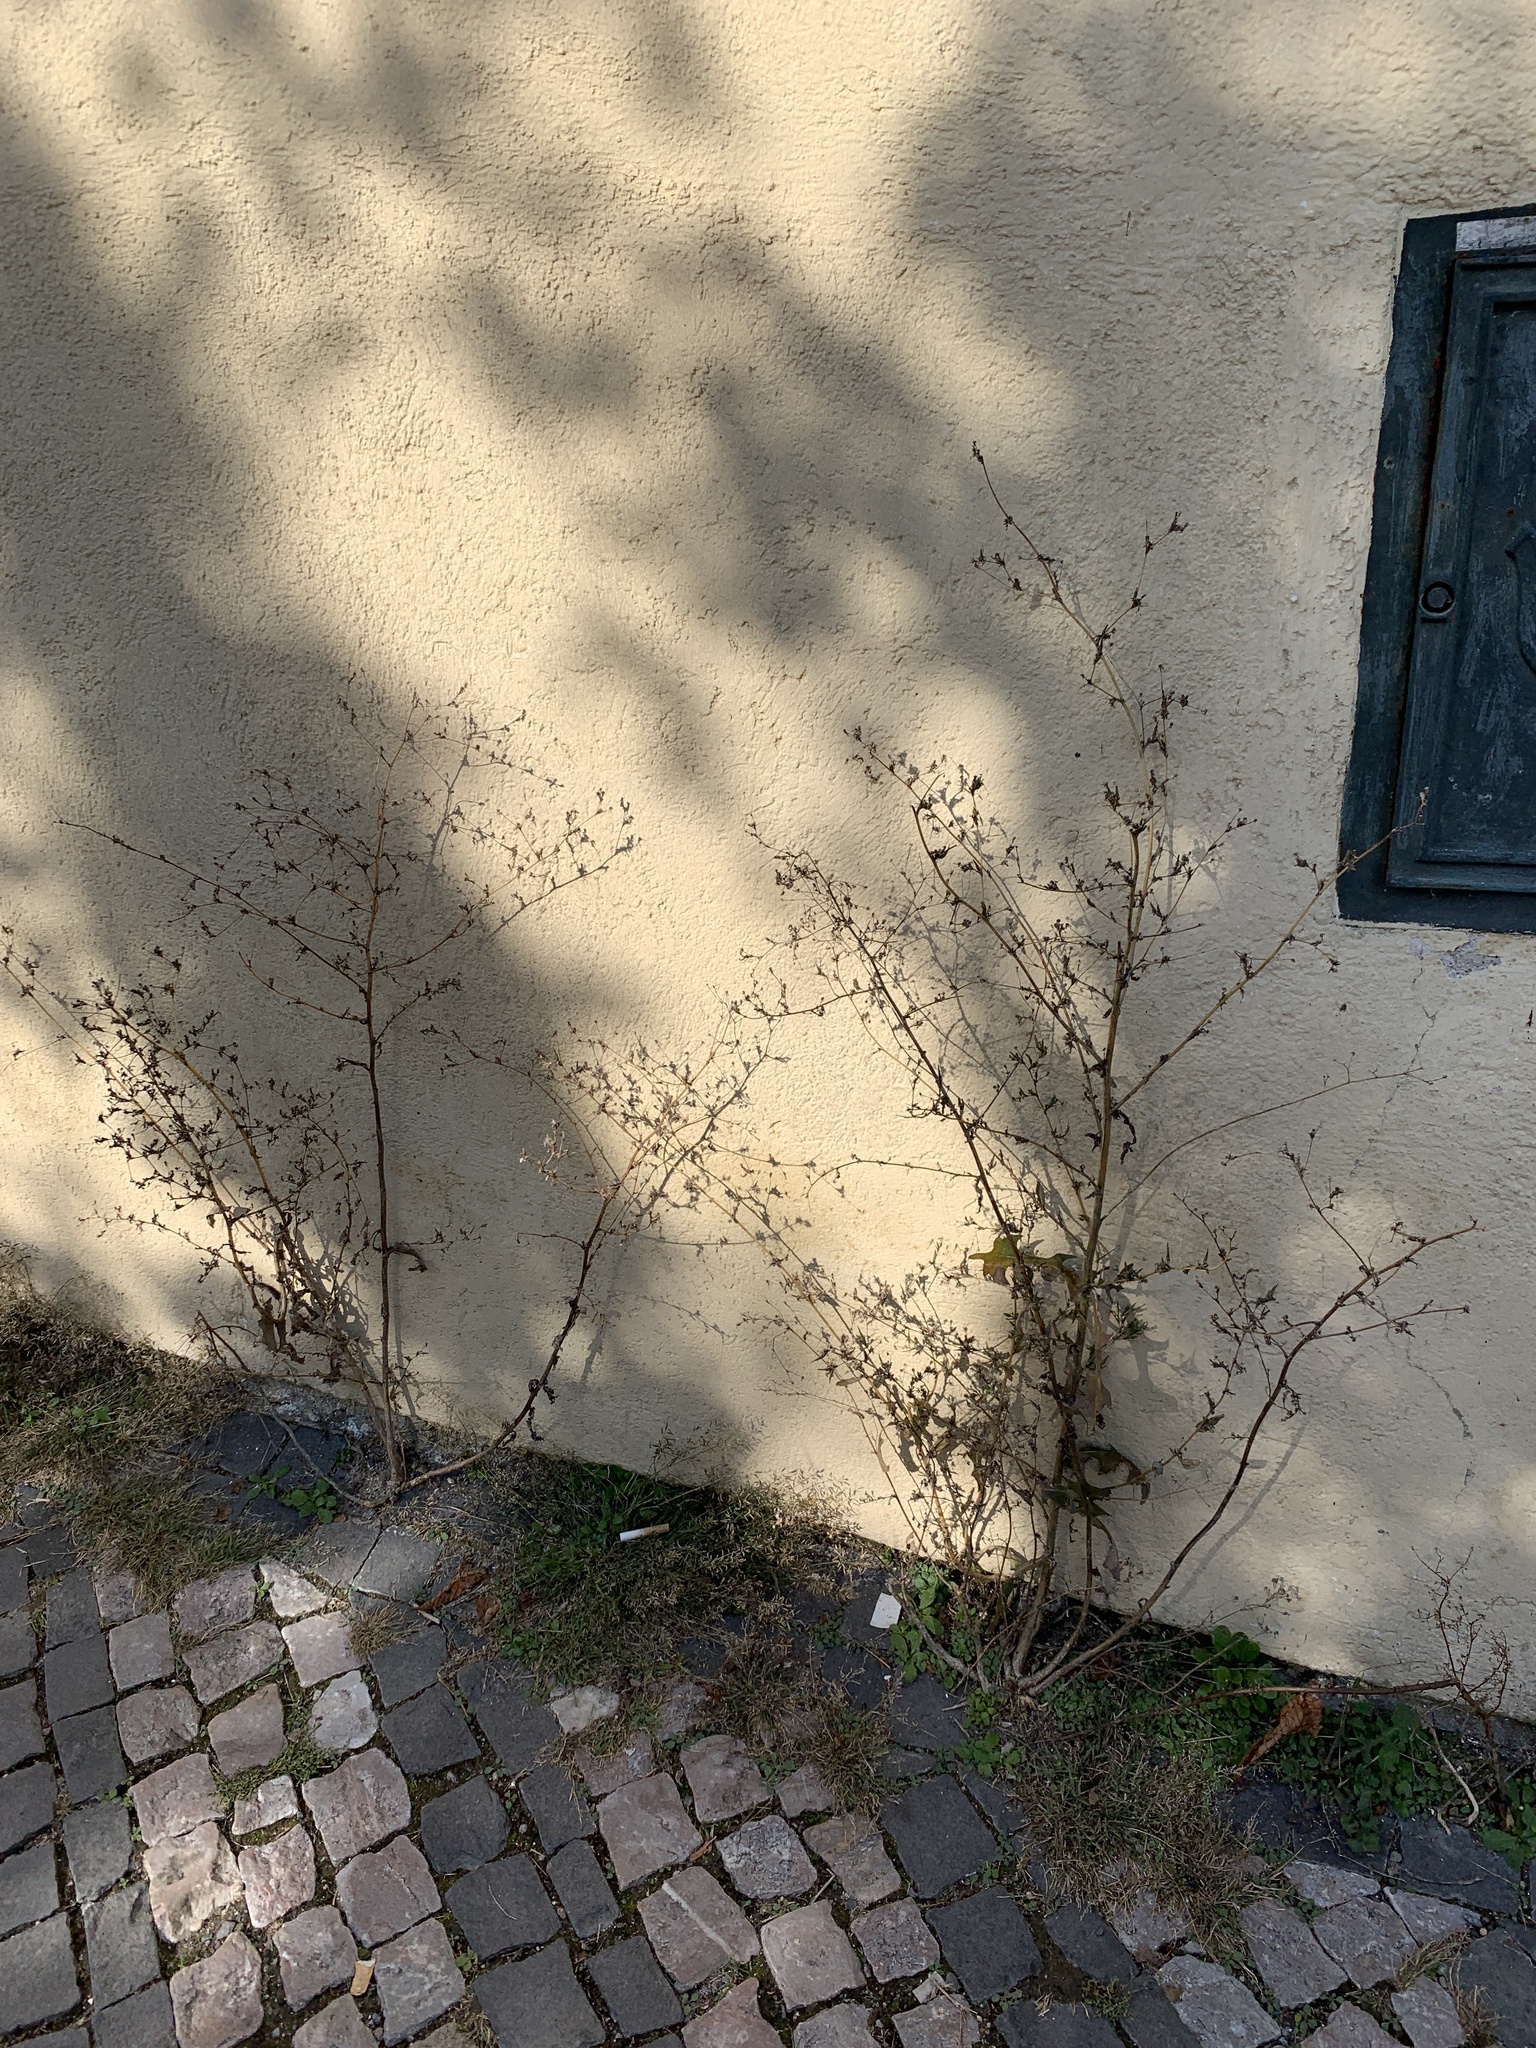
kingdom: Plantae
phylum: Tracheophyta
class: Magnoliopsida
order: Asterales
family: Asteraceae
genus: Lactuca
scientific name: Lactuca serriola
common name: Prickly lettuce
